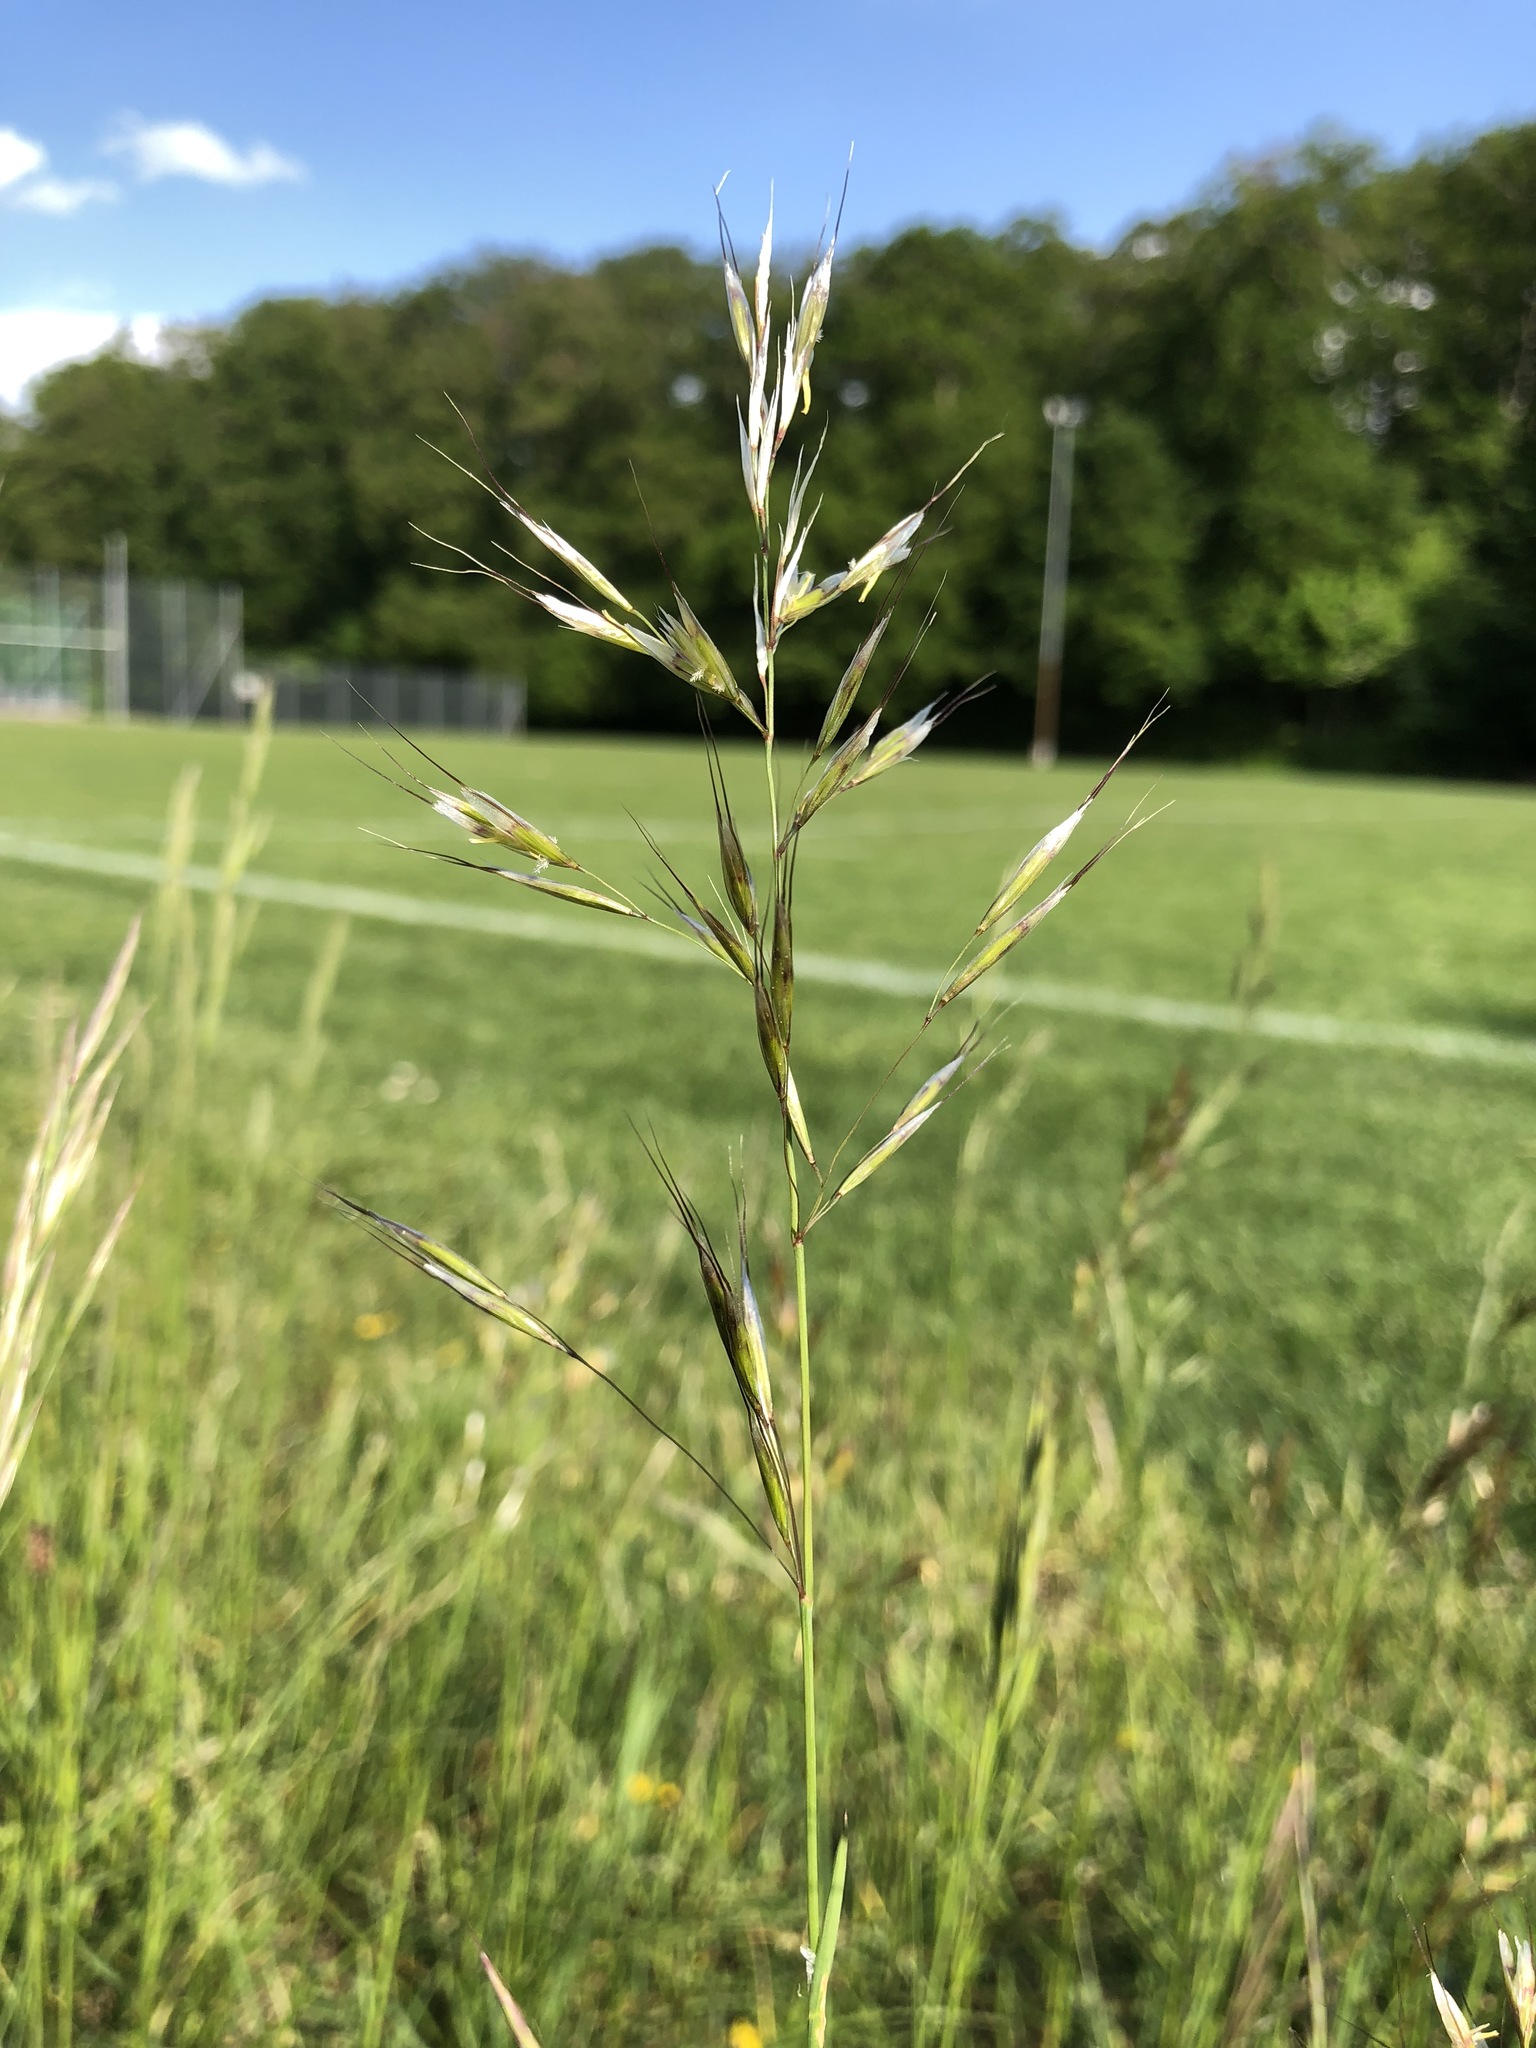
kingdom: Plantae
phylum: Tracheophyta
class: Liliopsida
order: Poales
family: Poaceae
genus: Avenula
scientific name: Avenula pubescens
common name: Downy alpine oatgrass
